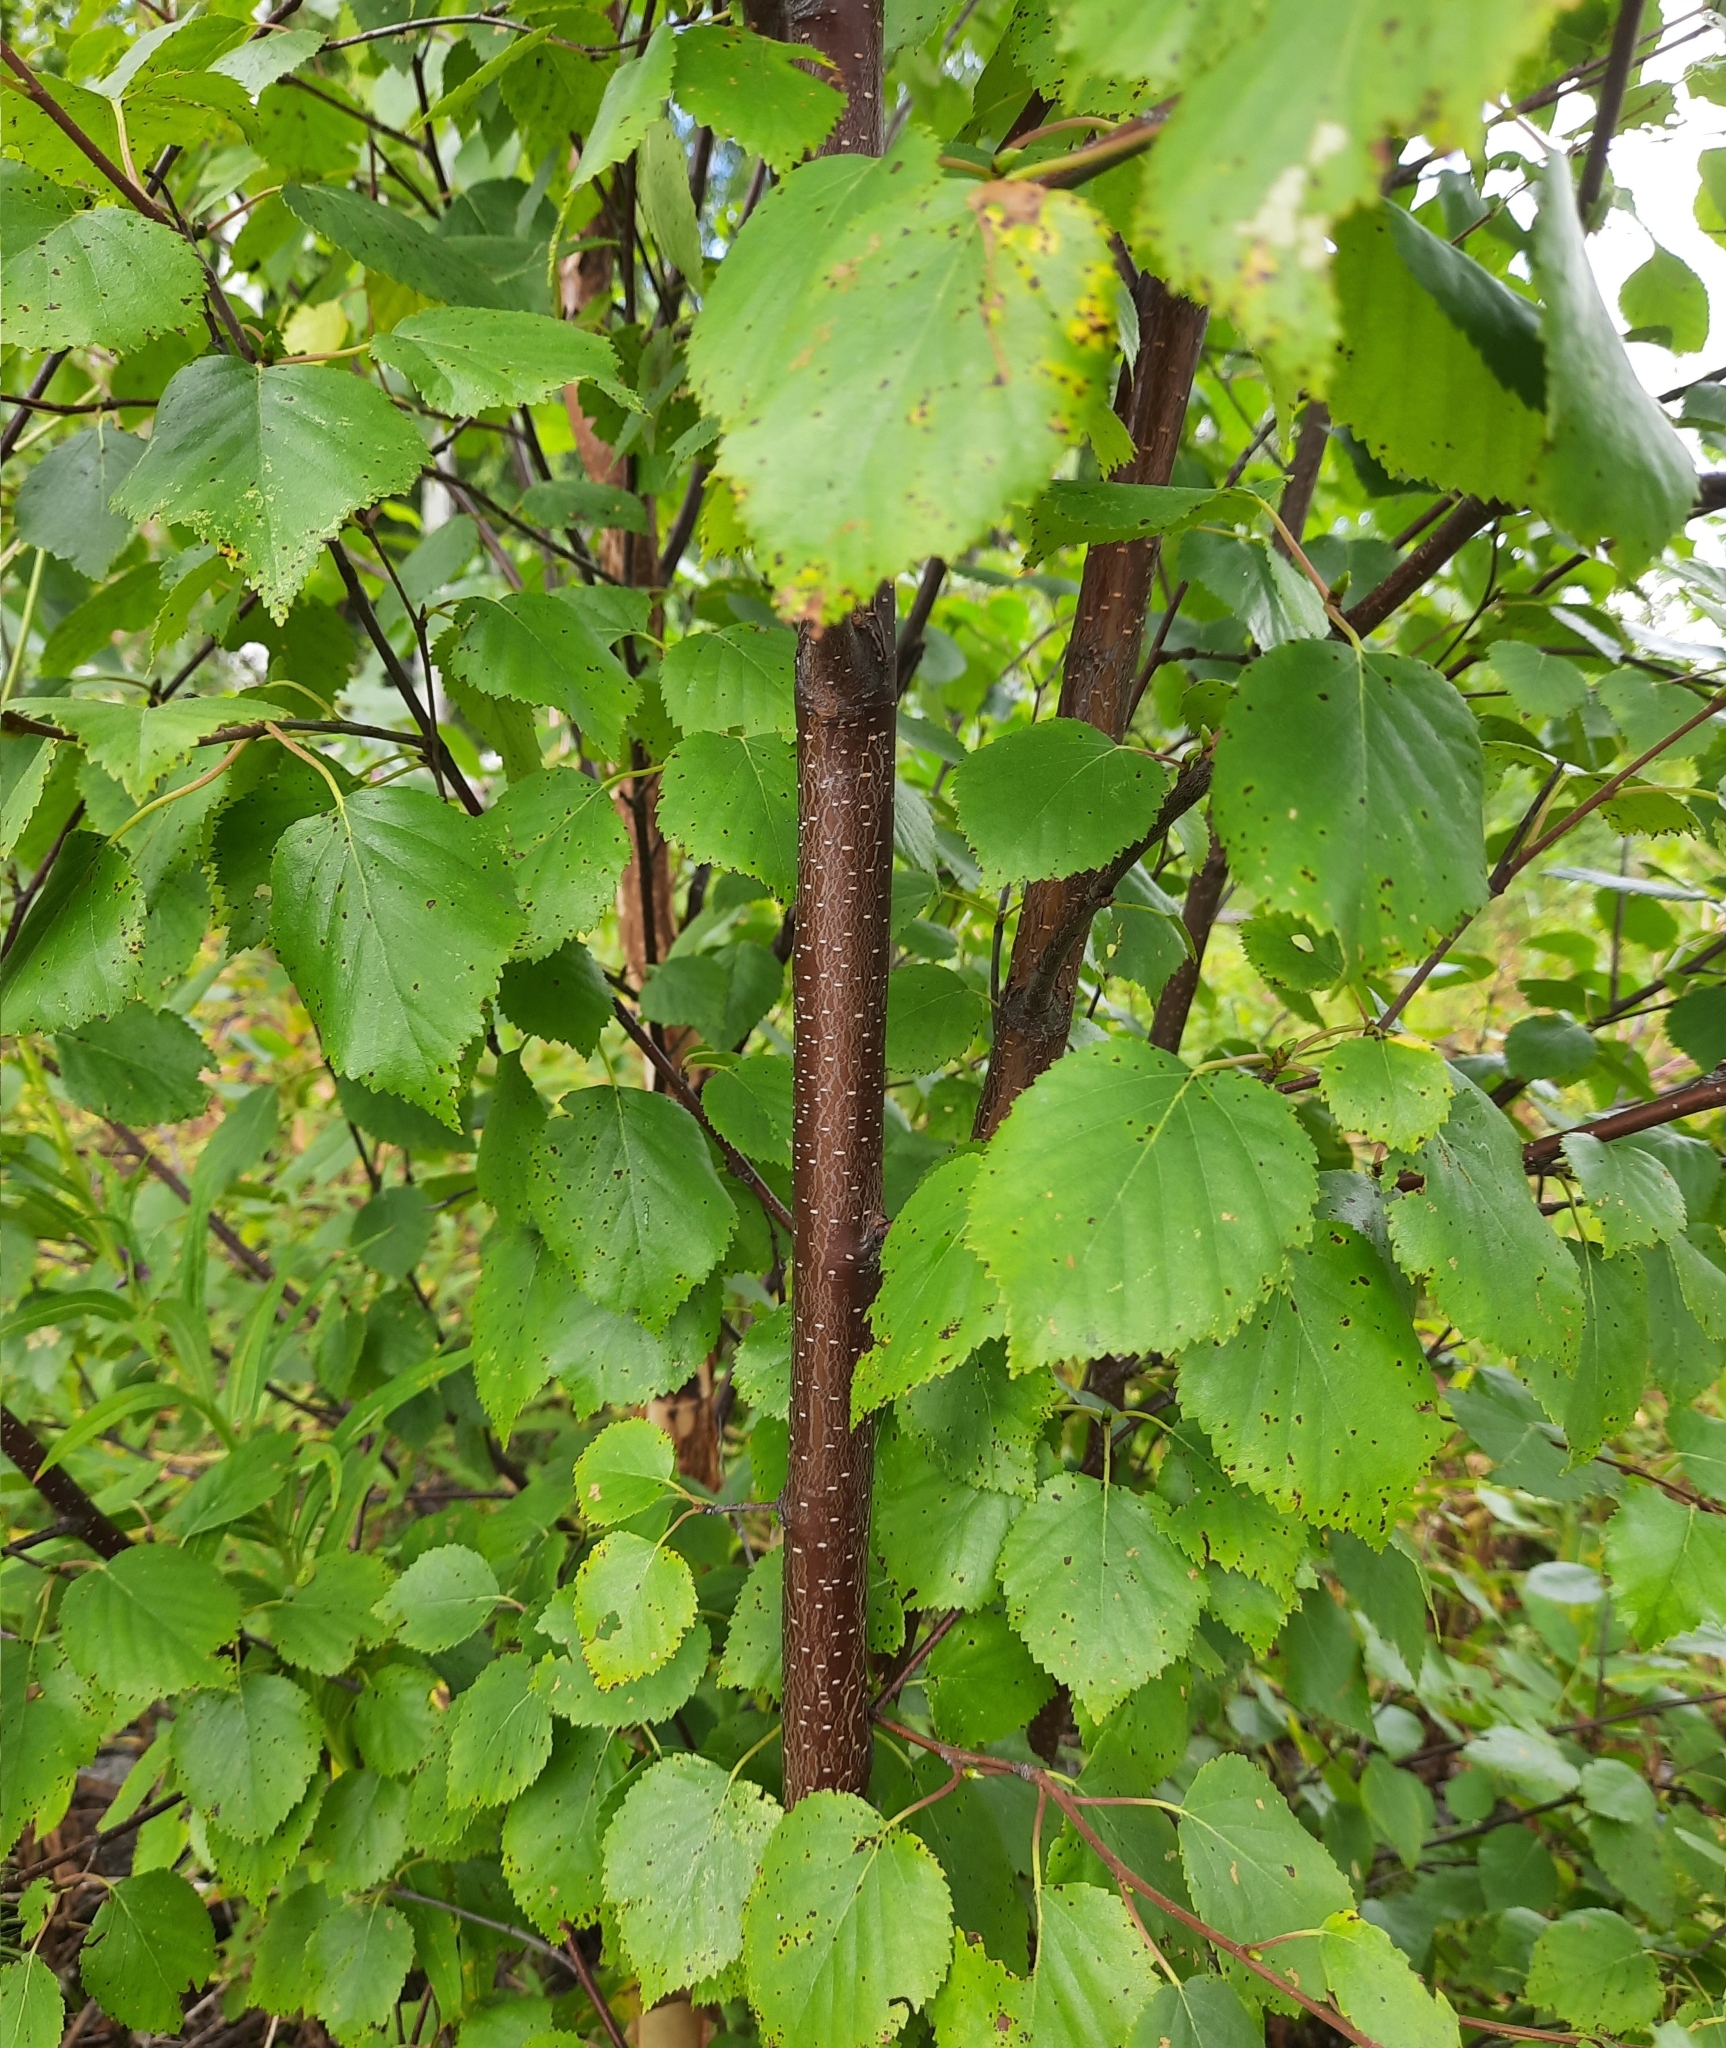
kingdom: Plantae
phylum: Tracheophyta
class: Magnoliopsida
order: Fagales
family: Betulaceae
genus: Betula
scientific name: Betula pubescens
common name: Downy birch
